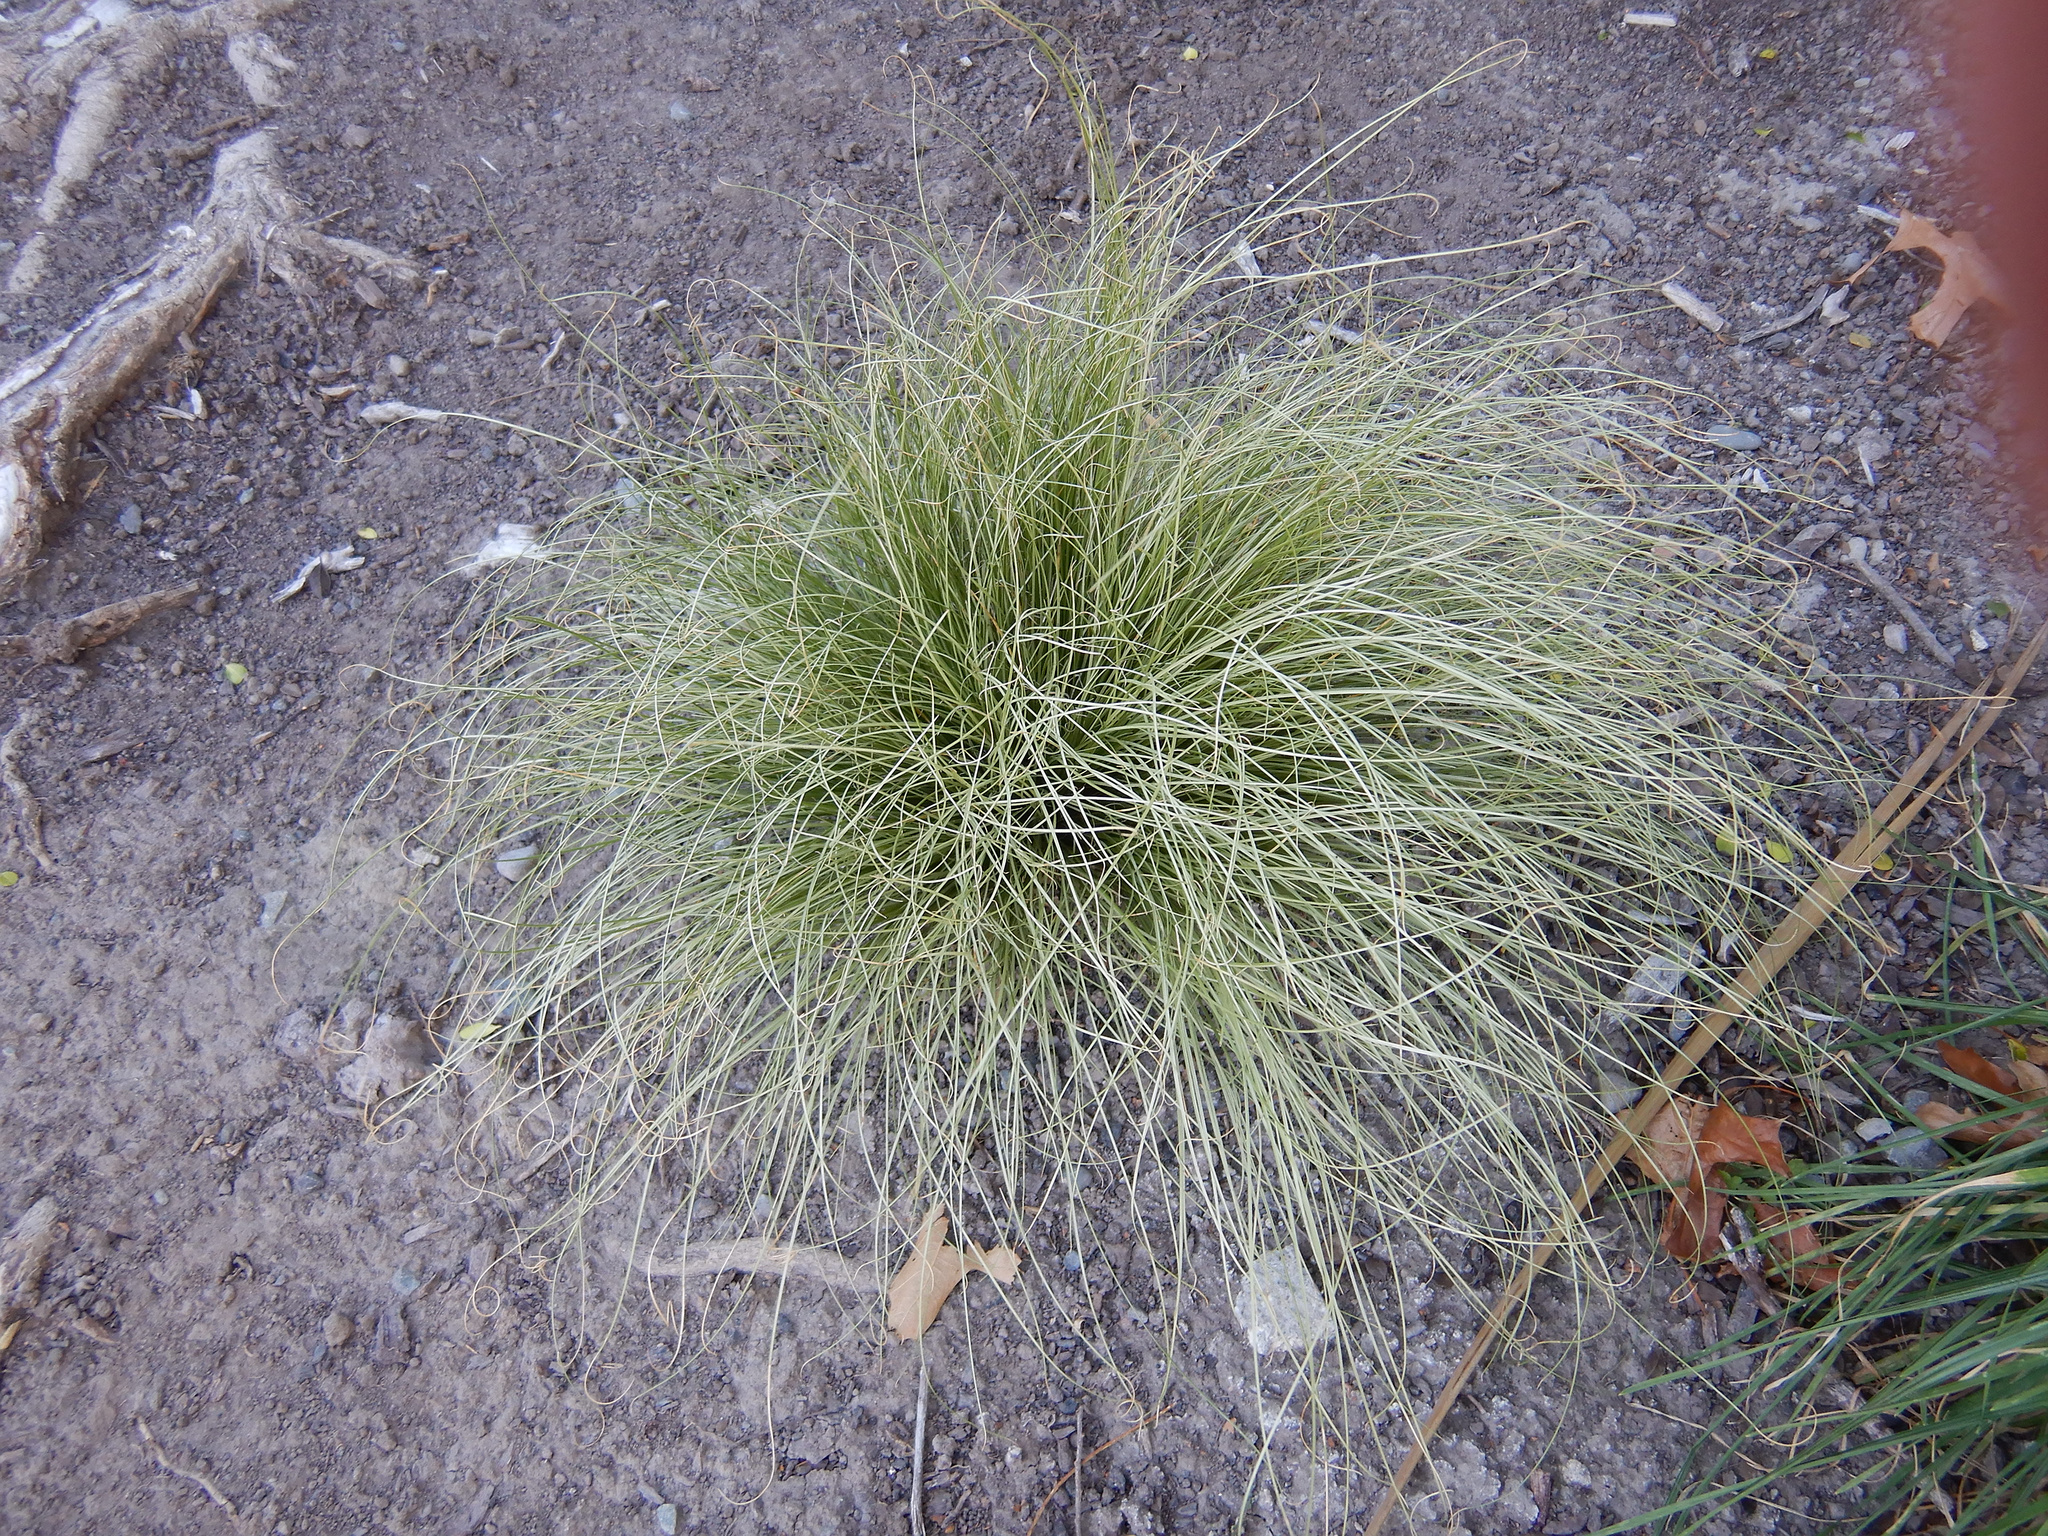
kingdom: Plantae
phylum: Tracheophyta
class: Liliopsida
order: Poales
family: Cyperaceae
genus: Carex
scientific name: Carex comans
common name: Longwood tussock
